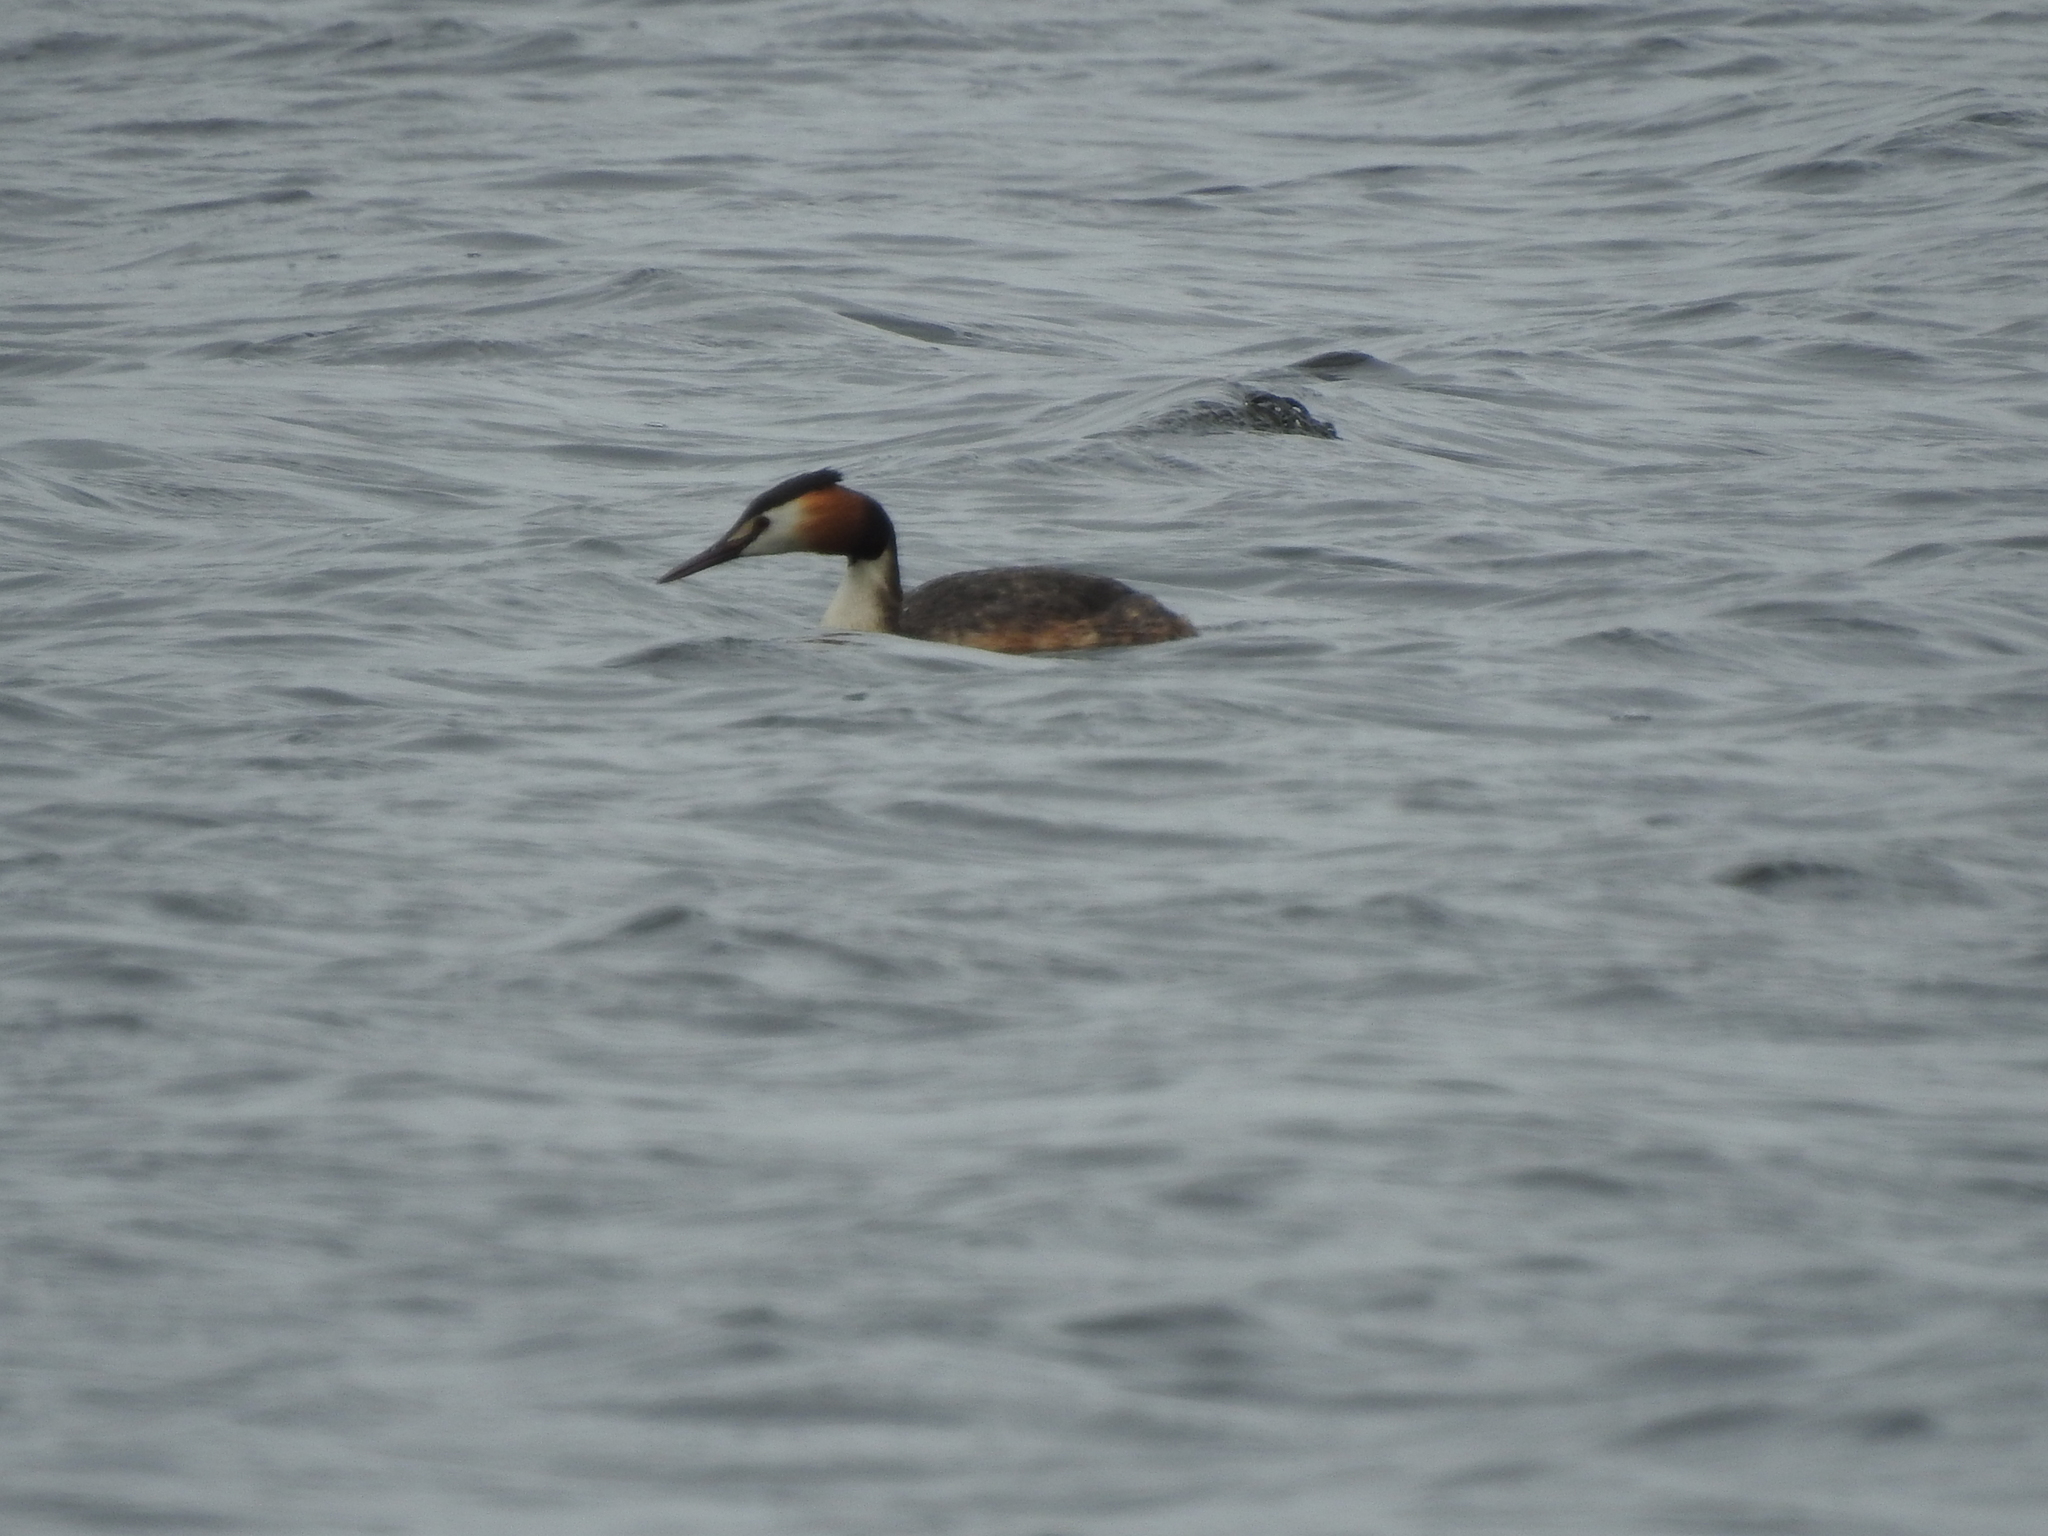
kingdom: Animalia
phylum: Chordata
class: Aves
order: Podicipediformes
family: Podicipedidae
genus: Podiceps
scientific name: Podiceps cristatus
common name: Great crested grebe
